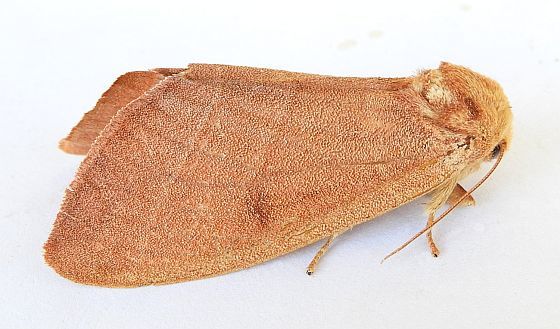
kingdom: Animalia
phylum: Arthropoda
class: Insecta
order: Lepidoptera
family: Notodontidae
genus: Datana
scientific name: Datana perfusa
